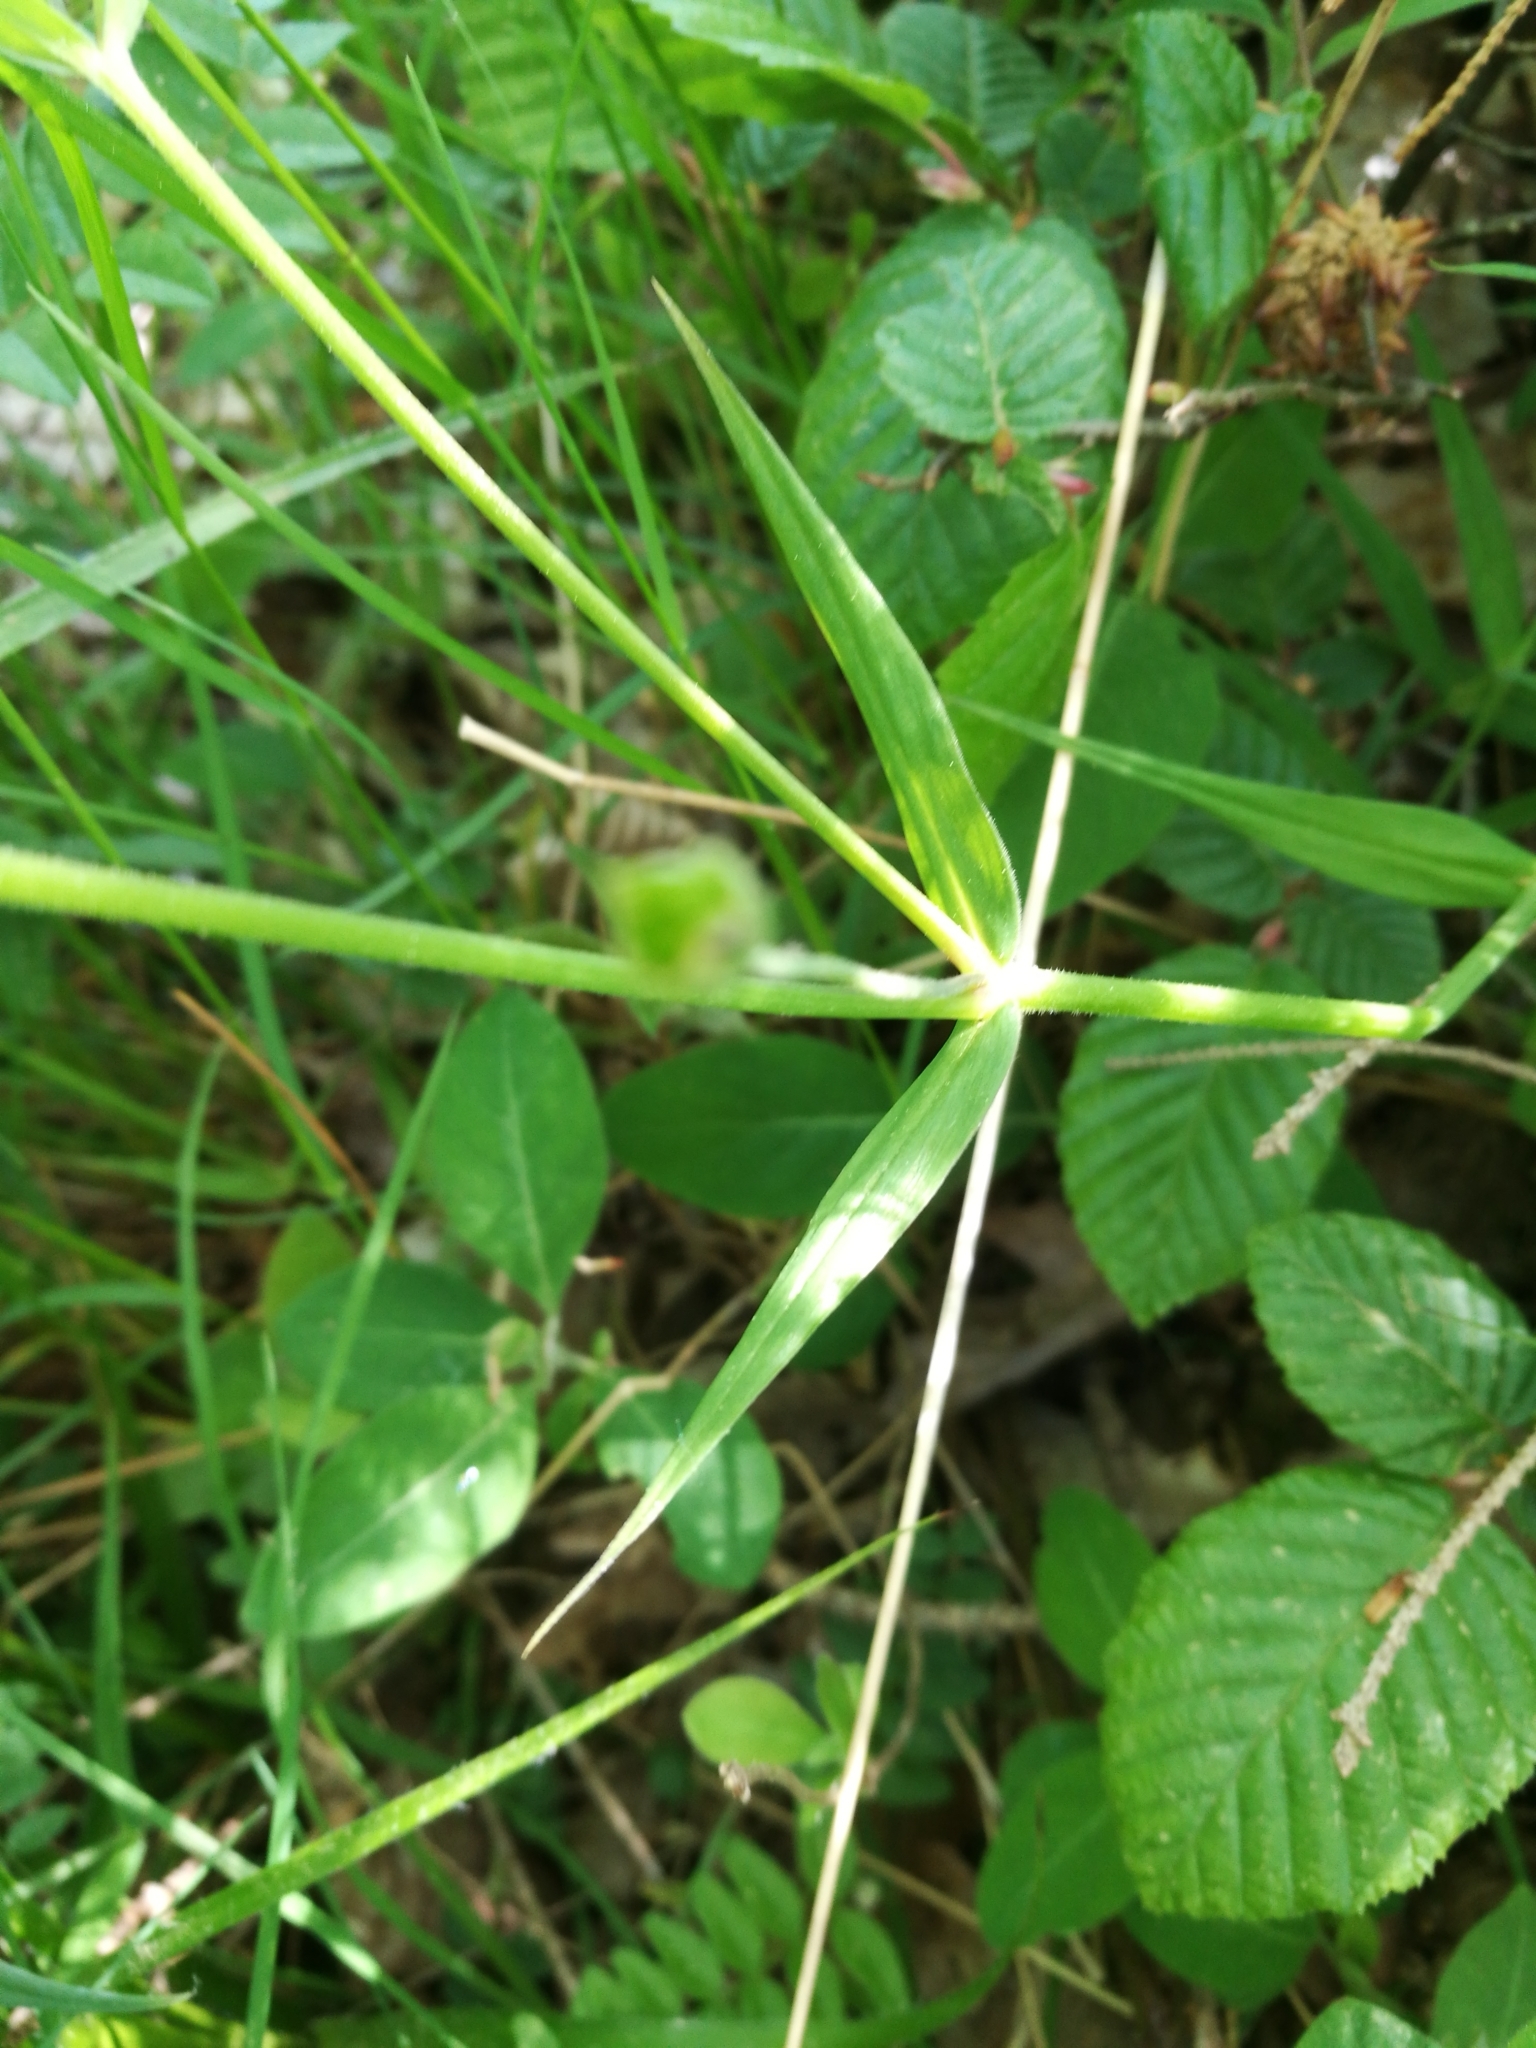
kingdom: Plantae
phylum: Tracheophyta
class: Magnoliopsida
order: Caryophyllales
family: Caryophyllaceae
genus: Rabelera
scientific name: Rabelera holostea
